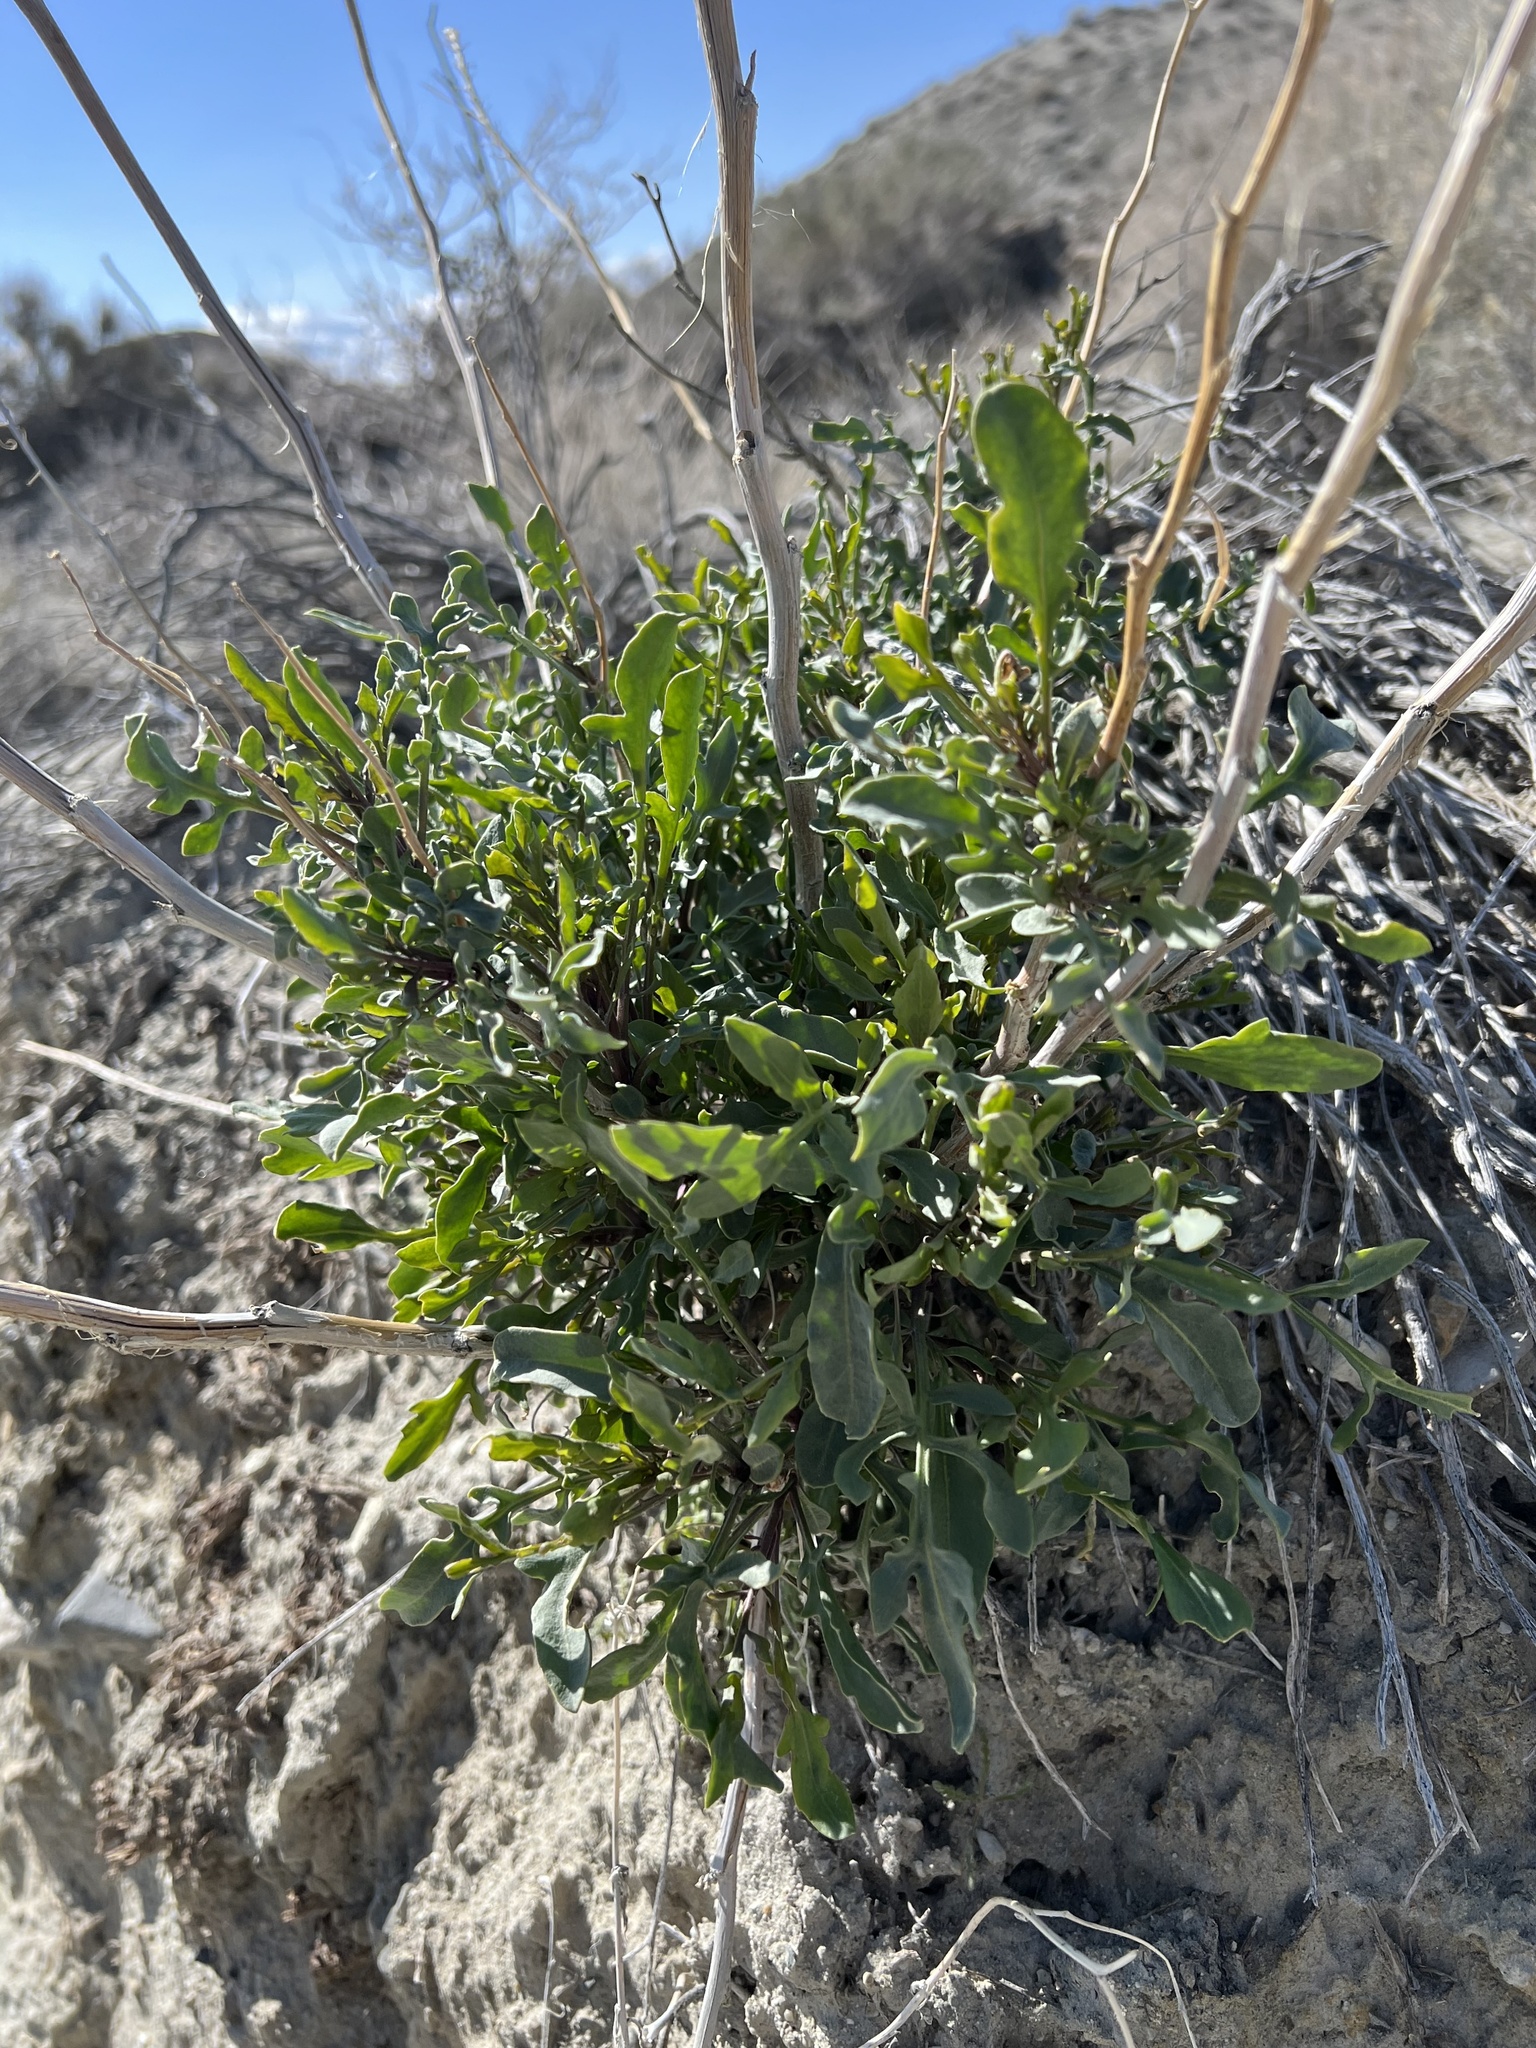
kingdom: Plantae
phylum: Tracheophyta
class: Magnoliopsida
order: Brassicales
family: Brassicaceae
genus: Stanleya
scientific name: Stanleya pinnata
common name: Prince's-plume
